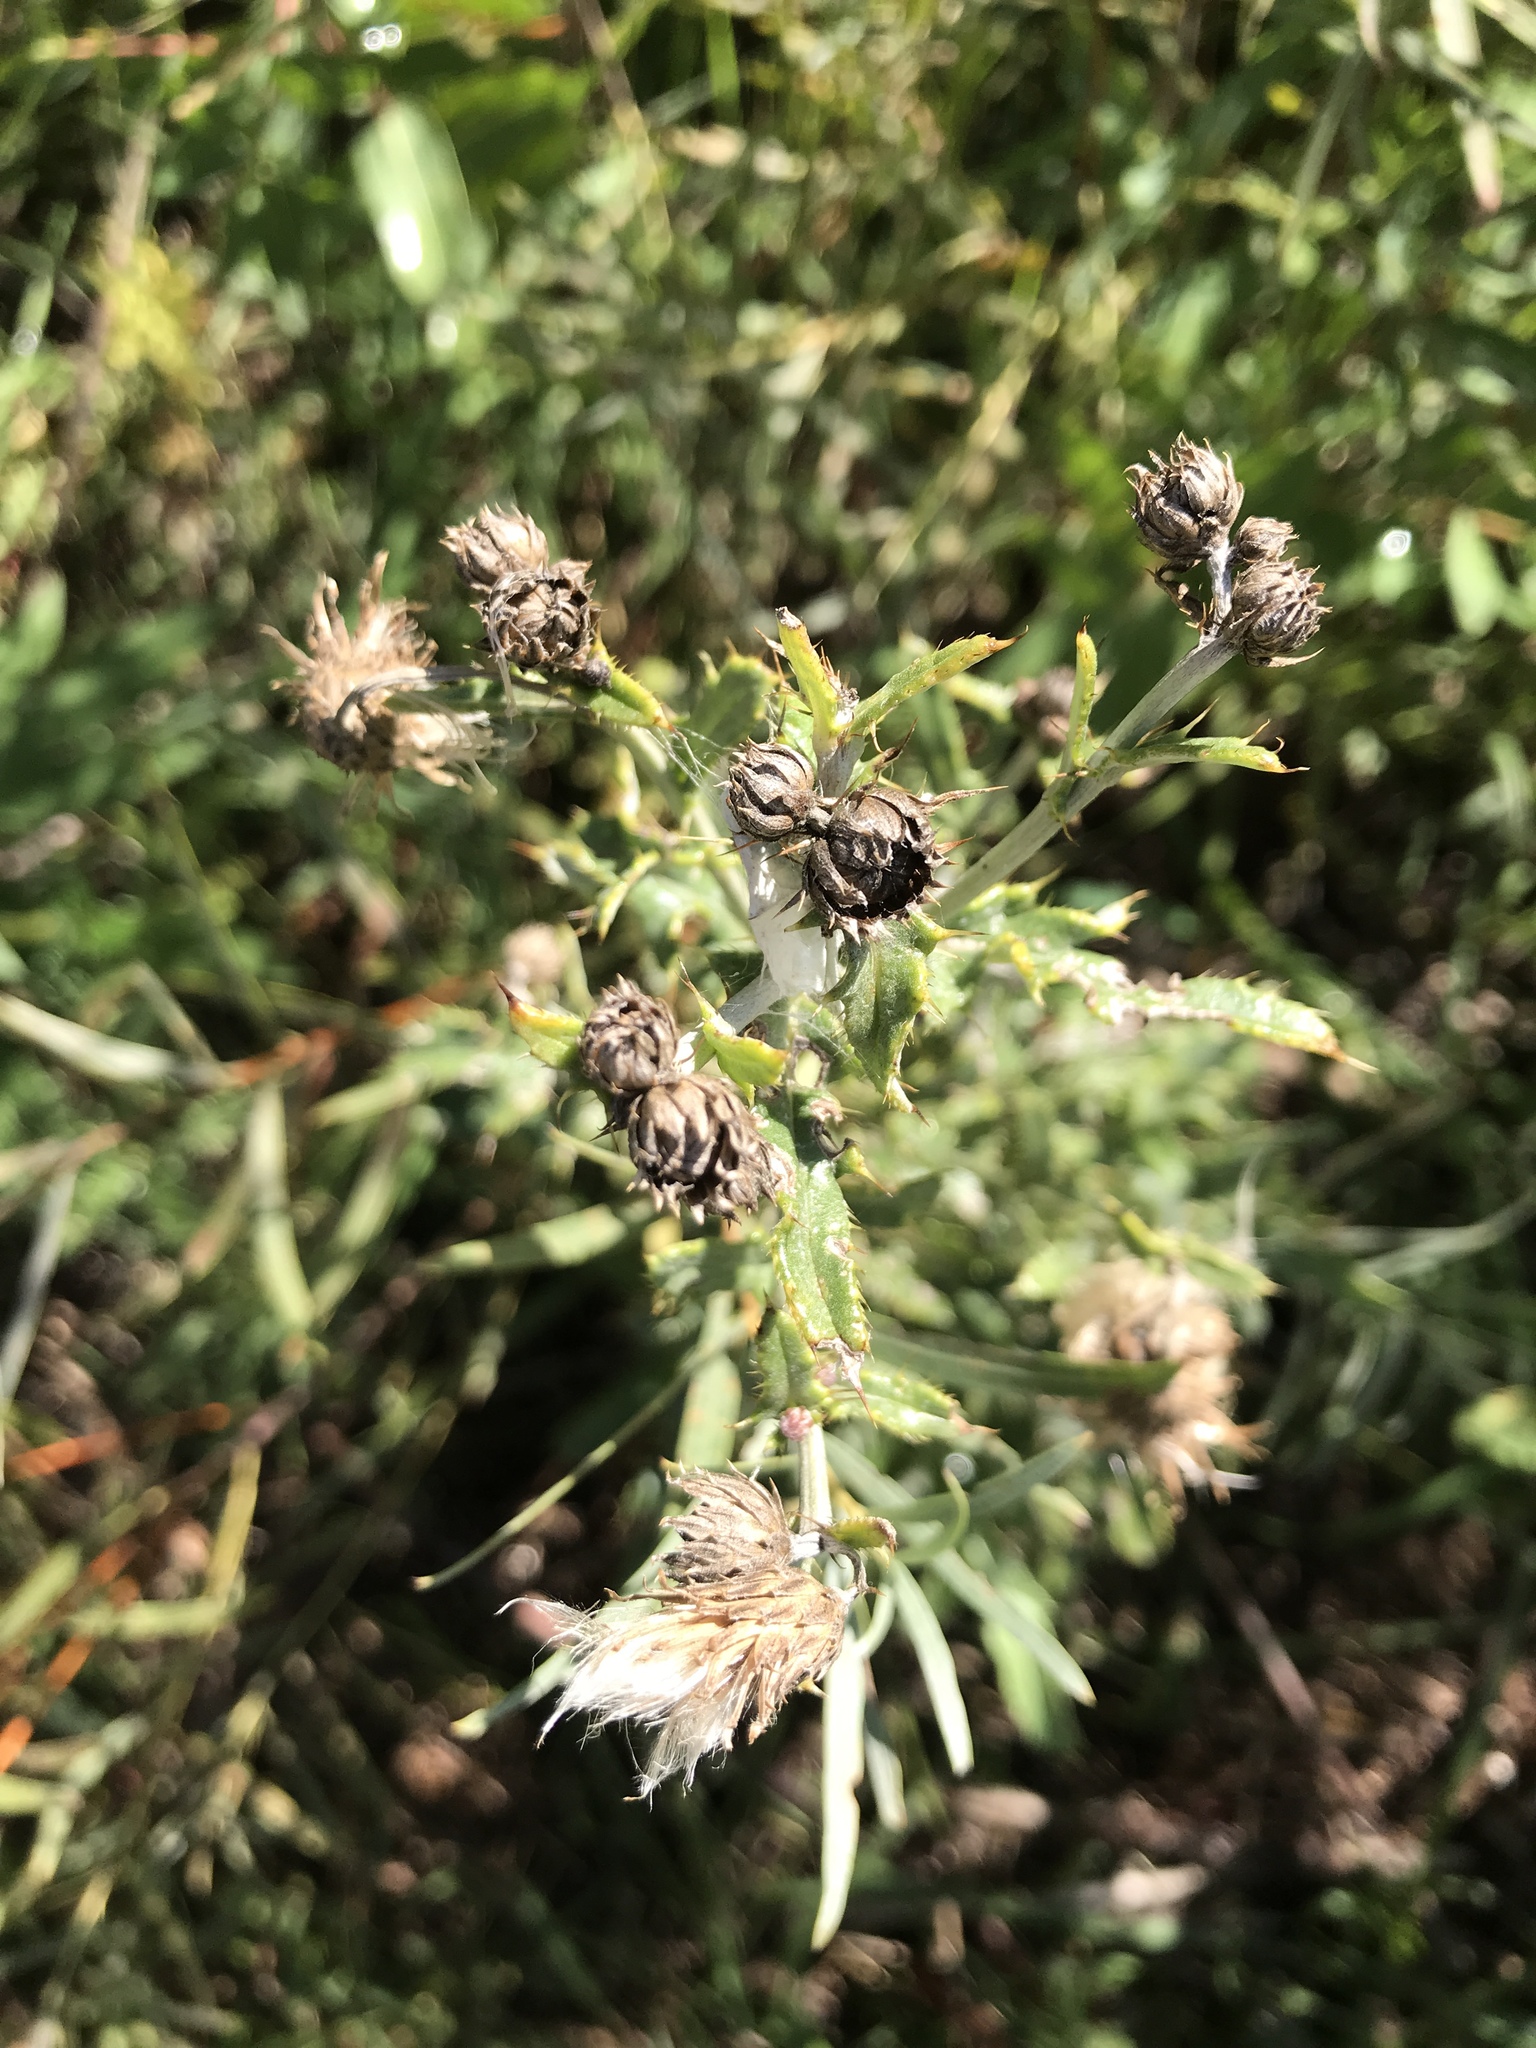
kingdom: Plantae
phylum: Tracheophyta
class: Magnoliopsida
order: Asterales
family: Asteraceae
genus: Cirsium
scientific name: Cirsium arvense
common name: Creeping thistle
